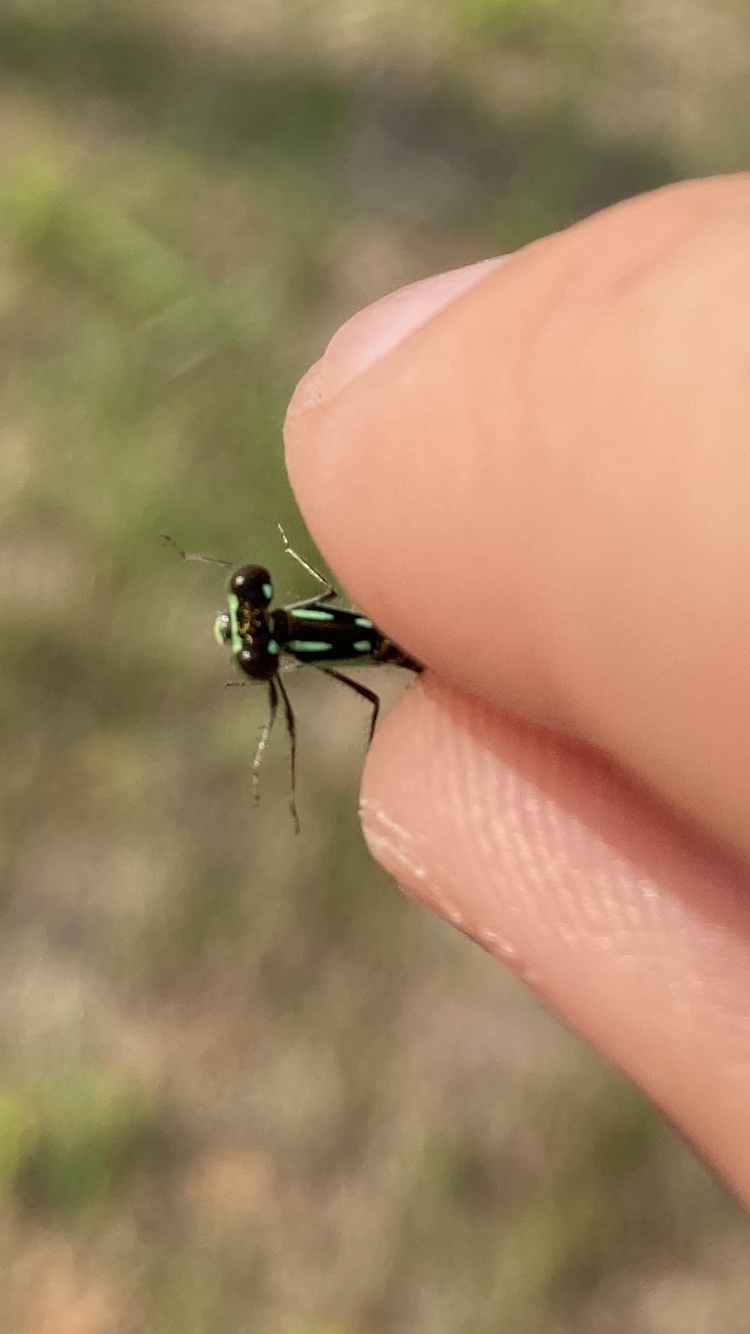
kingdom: Animalia
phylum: Arthropoda
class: Insecta
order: Odonata
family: Coenagrionidae
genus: Ischnura
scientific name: Ischnura posita
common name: Fragile forktail
